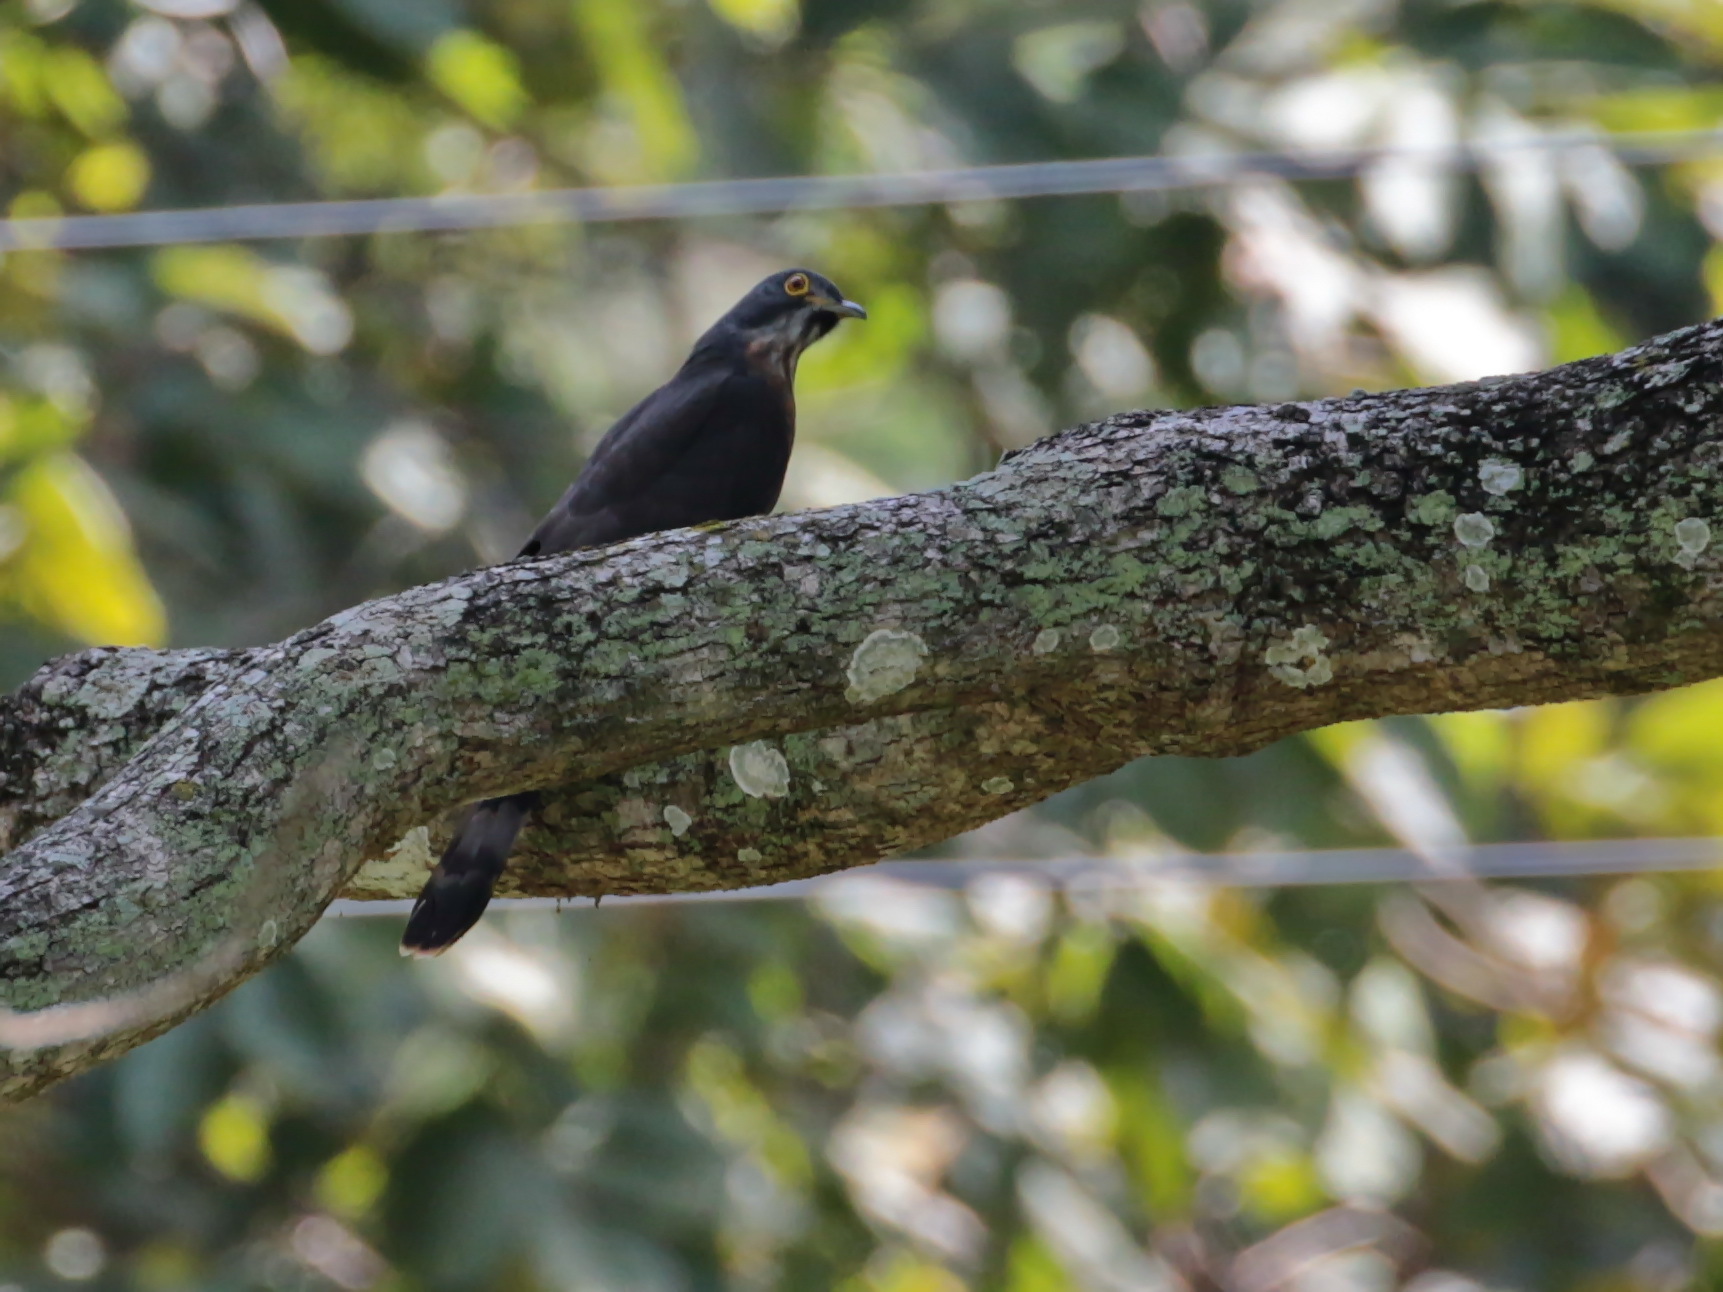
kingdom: Animalia
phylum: Chordata
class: Aves
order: Cuculiformes
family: Cuculidae
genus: Cuculus
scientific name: Cuculus sparverioides
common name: Large hawk cuckoo
